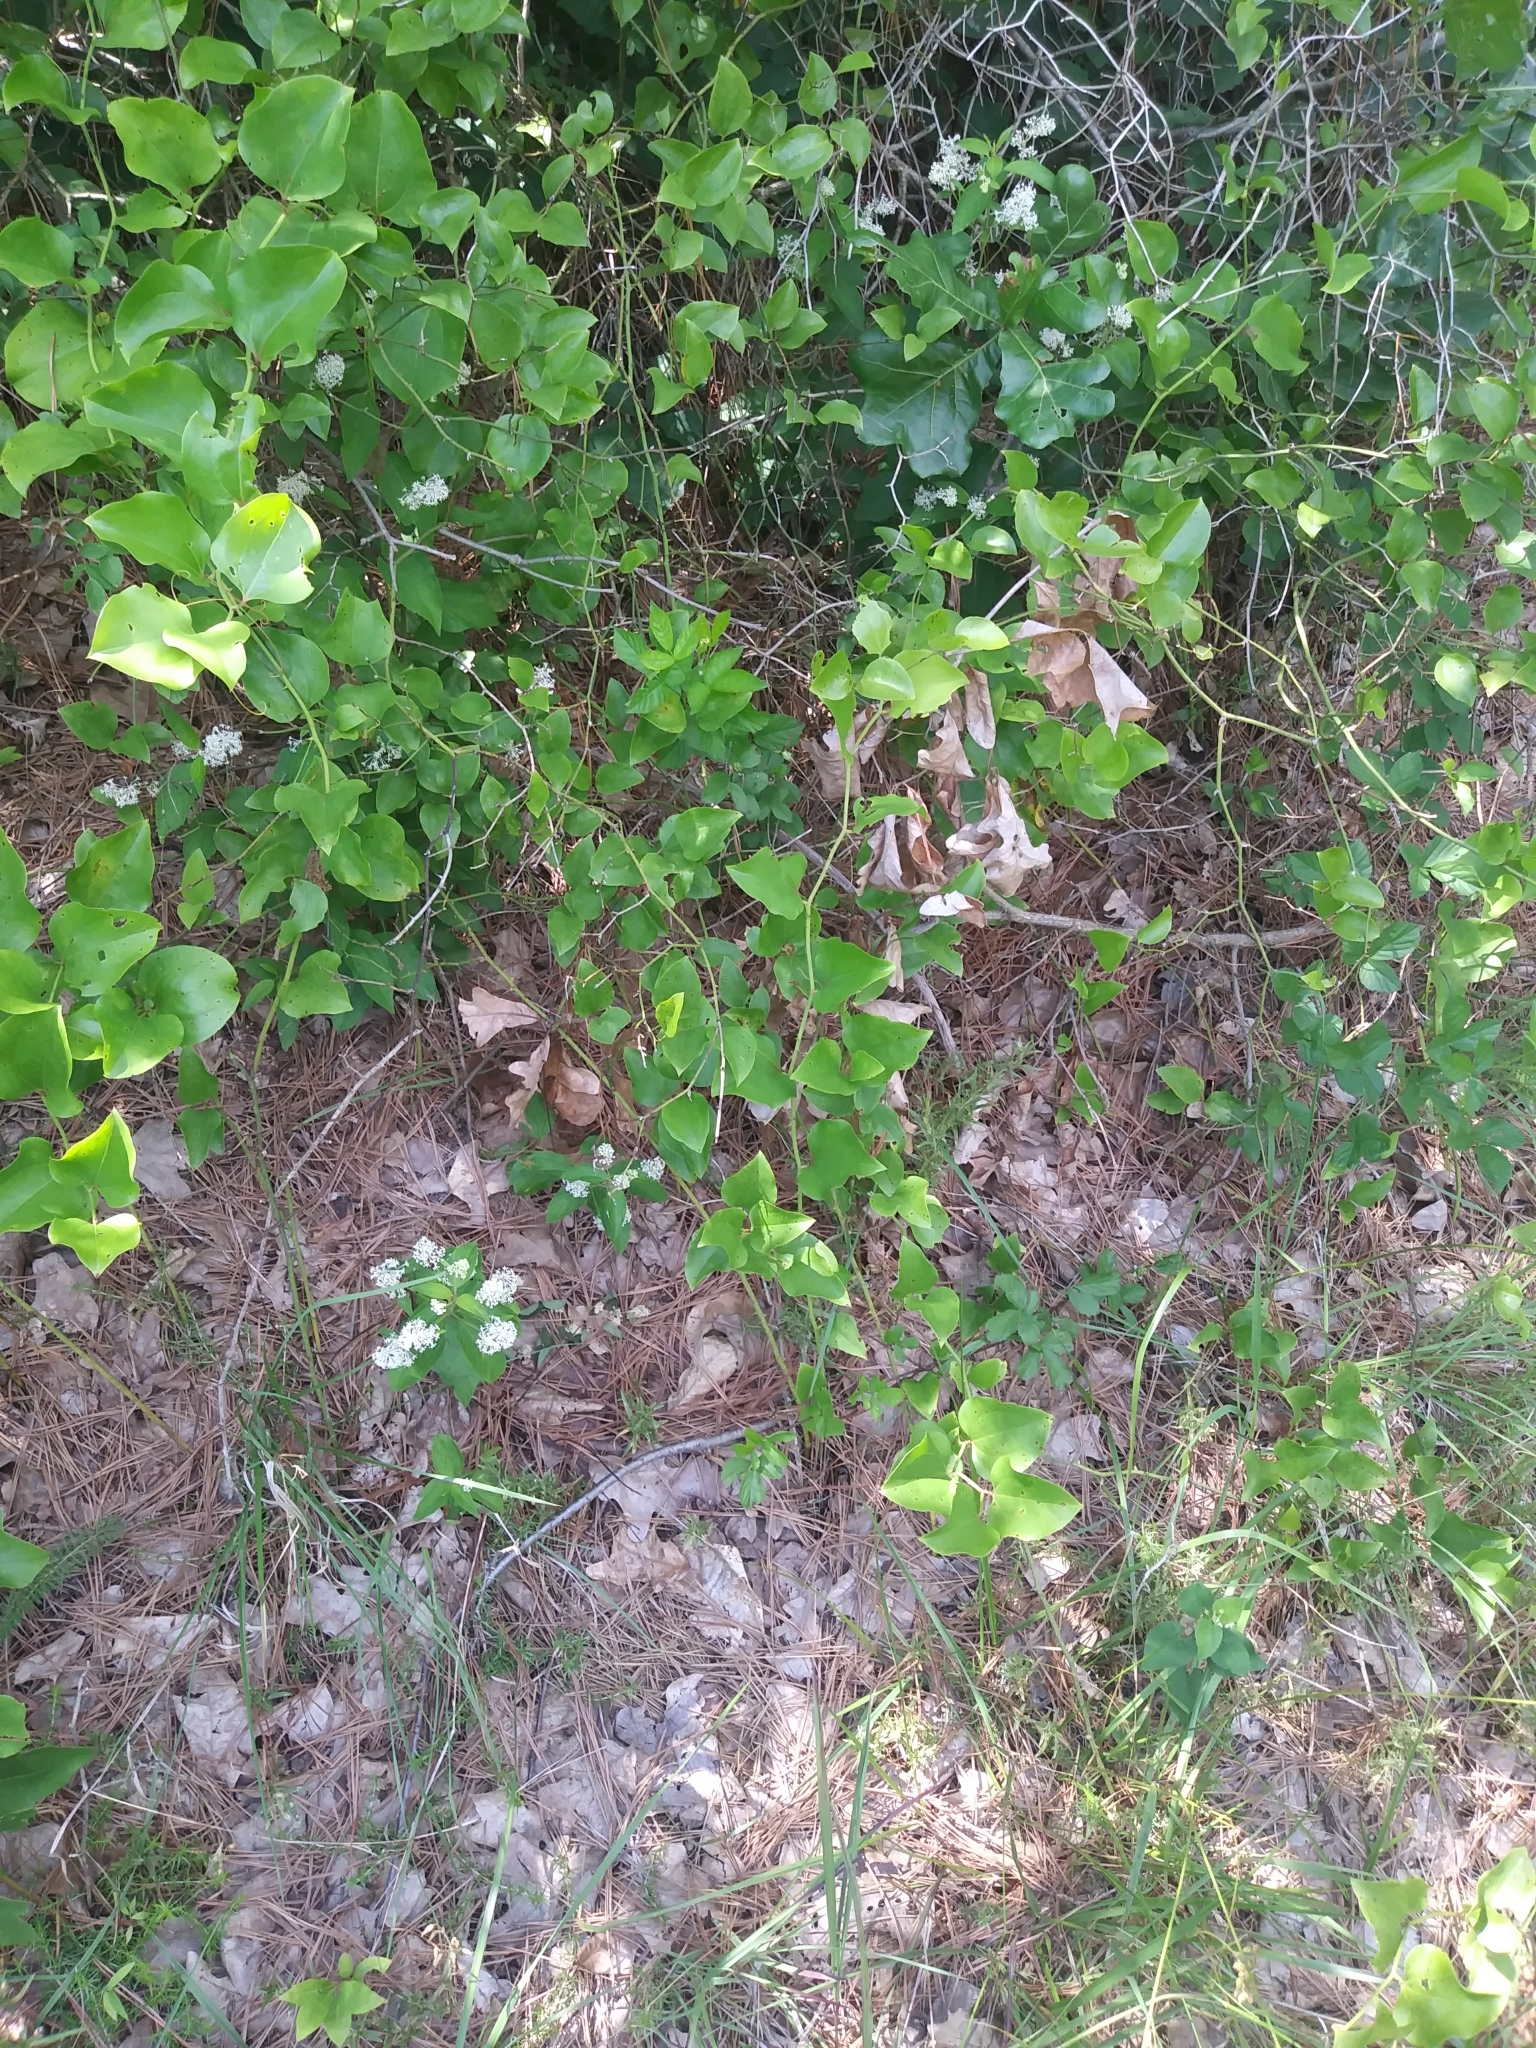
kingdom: Plantae
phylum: Tracheophyta
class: Magnoliopsida
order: Rosales
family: Rhamnaceae
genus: Ceanothus
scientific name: Ceanothus americanus
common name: Redroot
